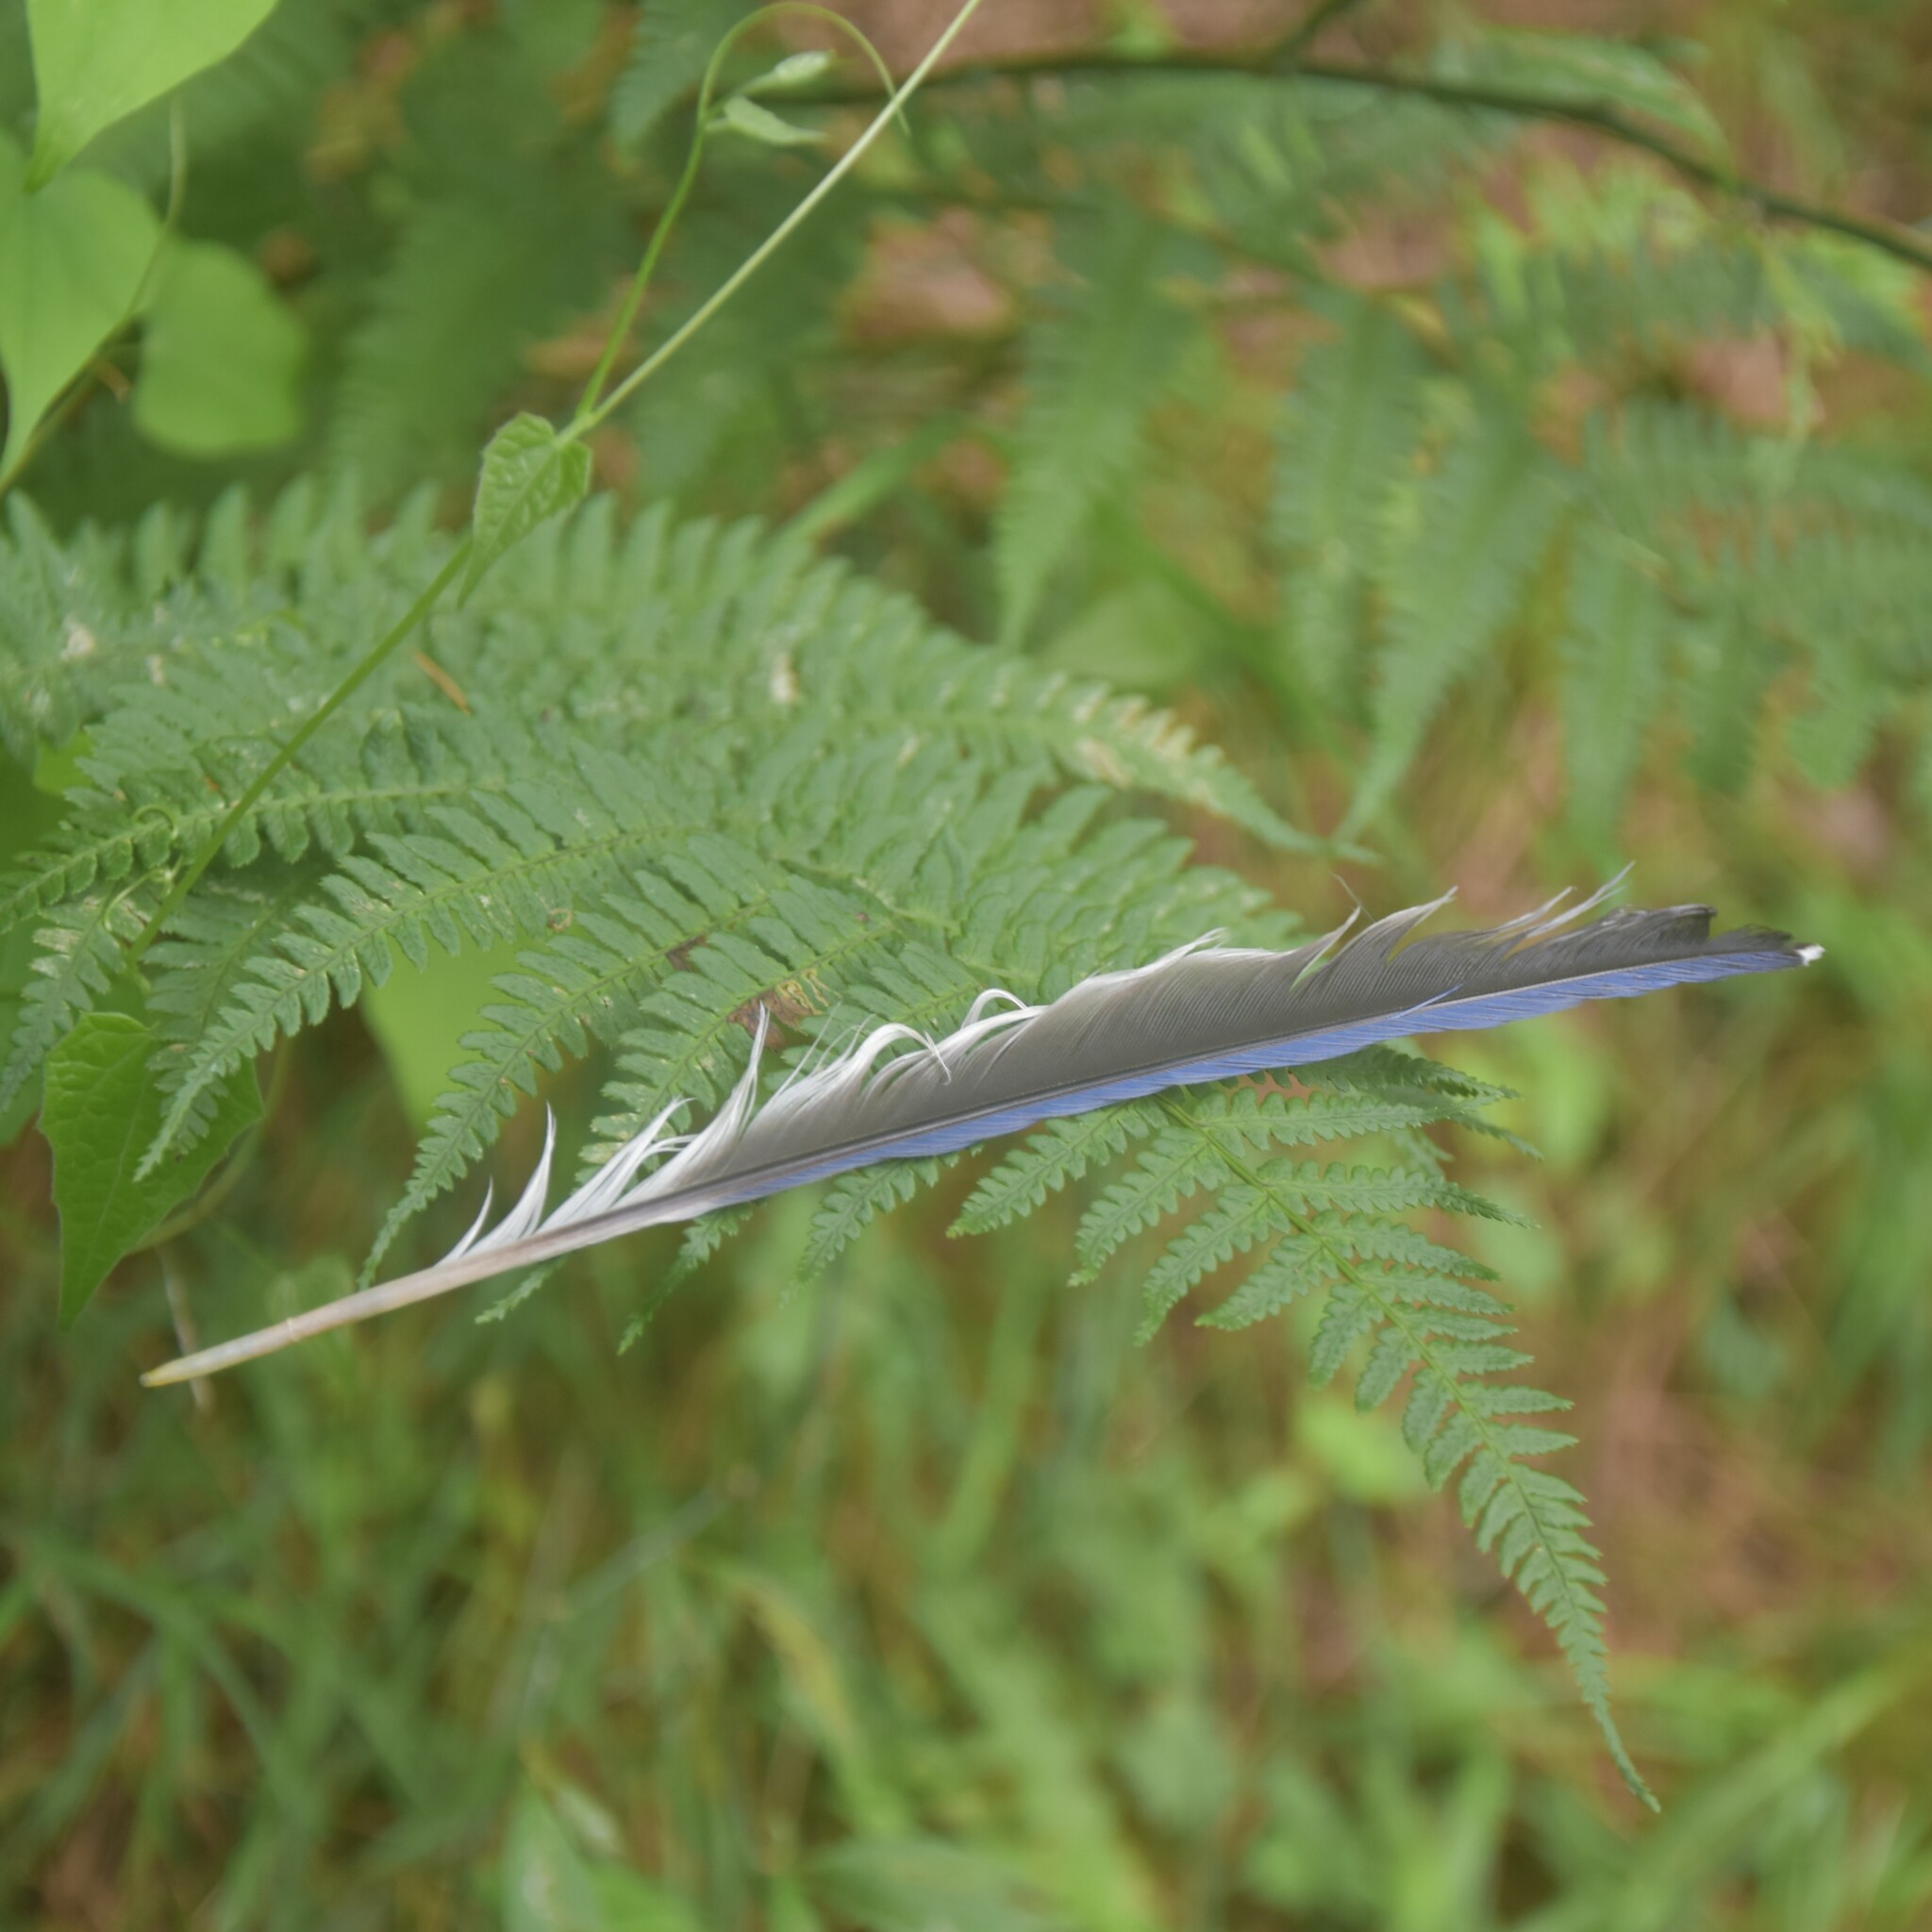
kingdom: Animalia
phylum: Chordata
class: Aves
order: Passeriformes
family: Corvidae
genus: Urocissa
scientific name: Urocissa flavirostris
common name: Yellow-billed blue magpie
